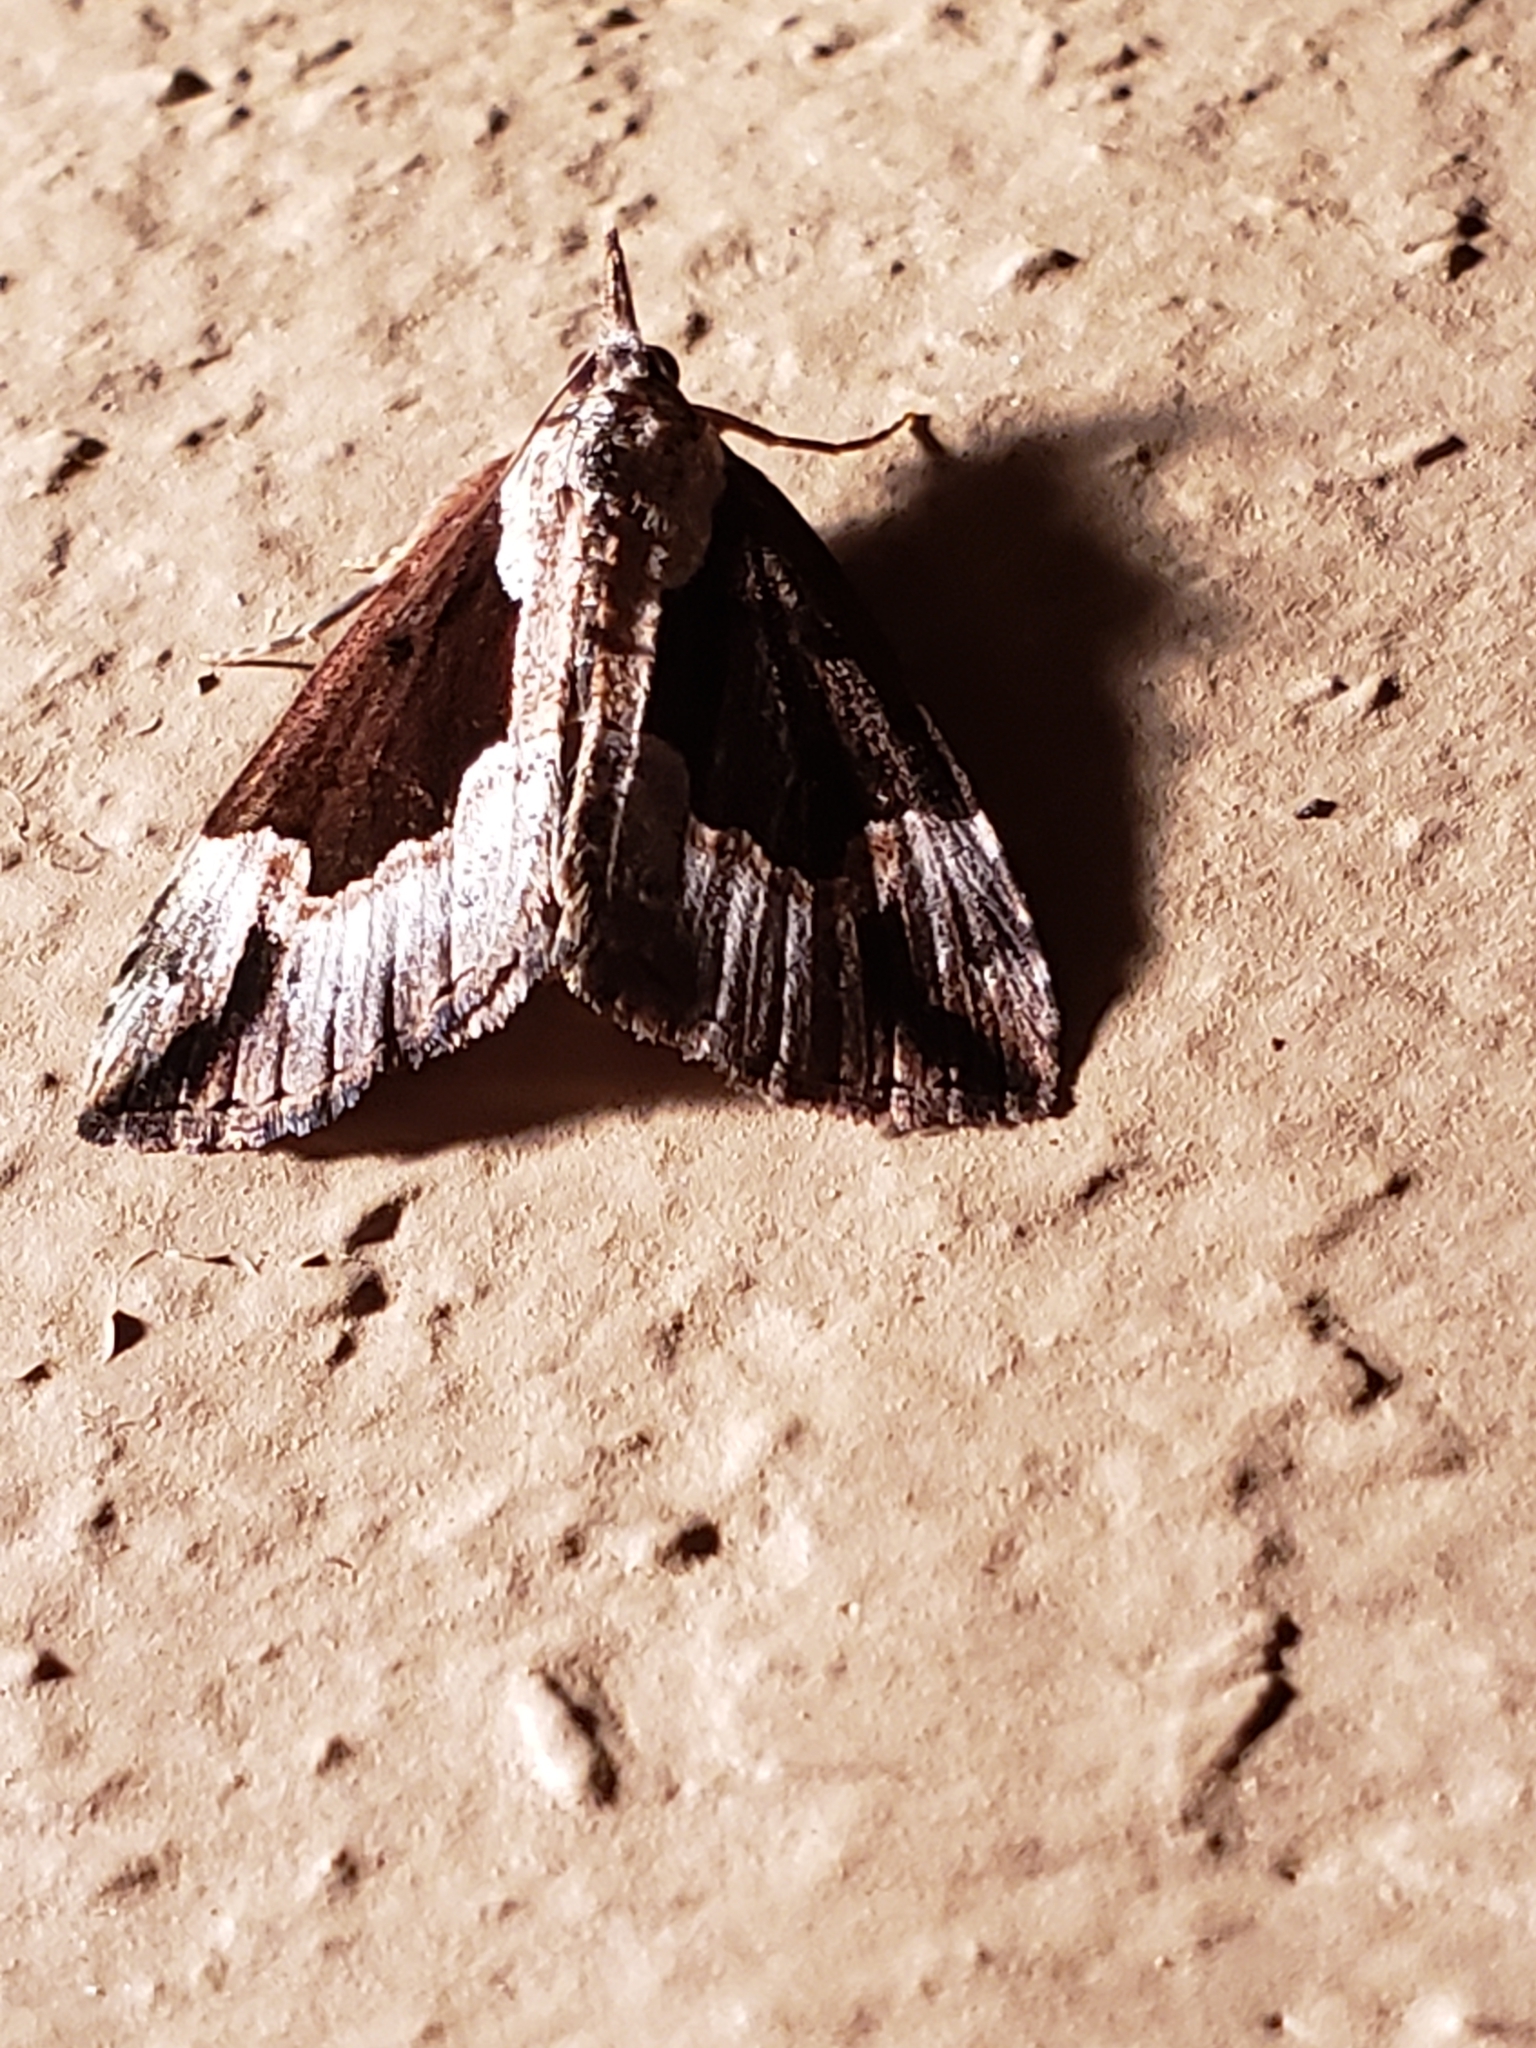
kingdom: Animalia
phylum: Arthropoda
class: Insecta
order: Lepidoptera
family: Erebidae
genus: Hypena
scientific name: Hypena baltimoralis
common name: Baltimore snout
